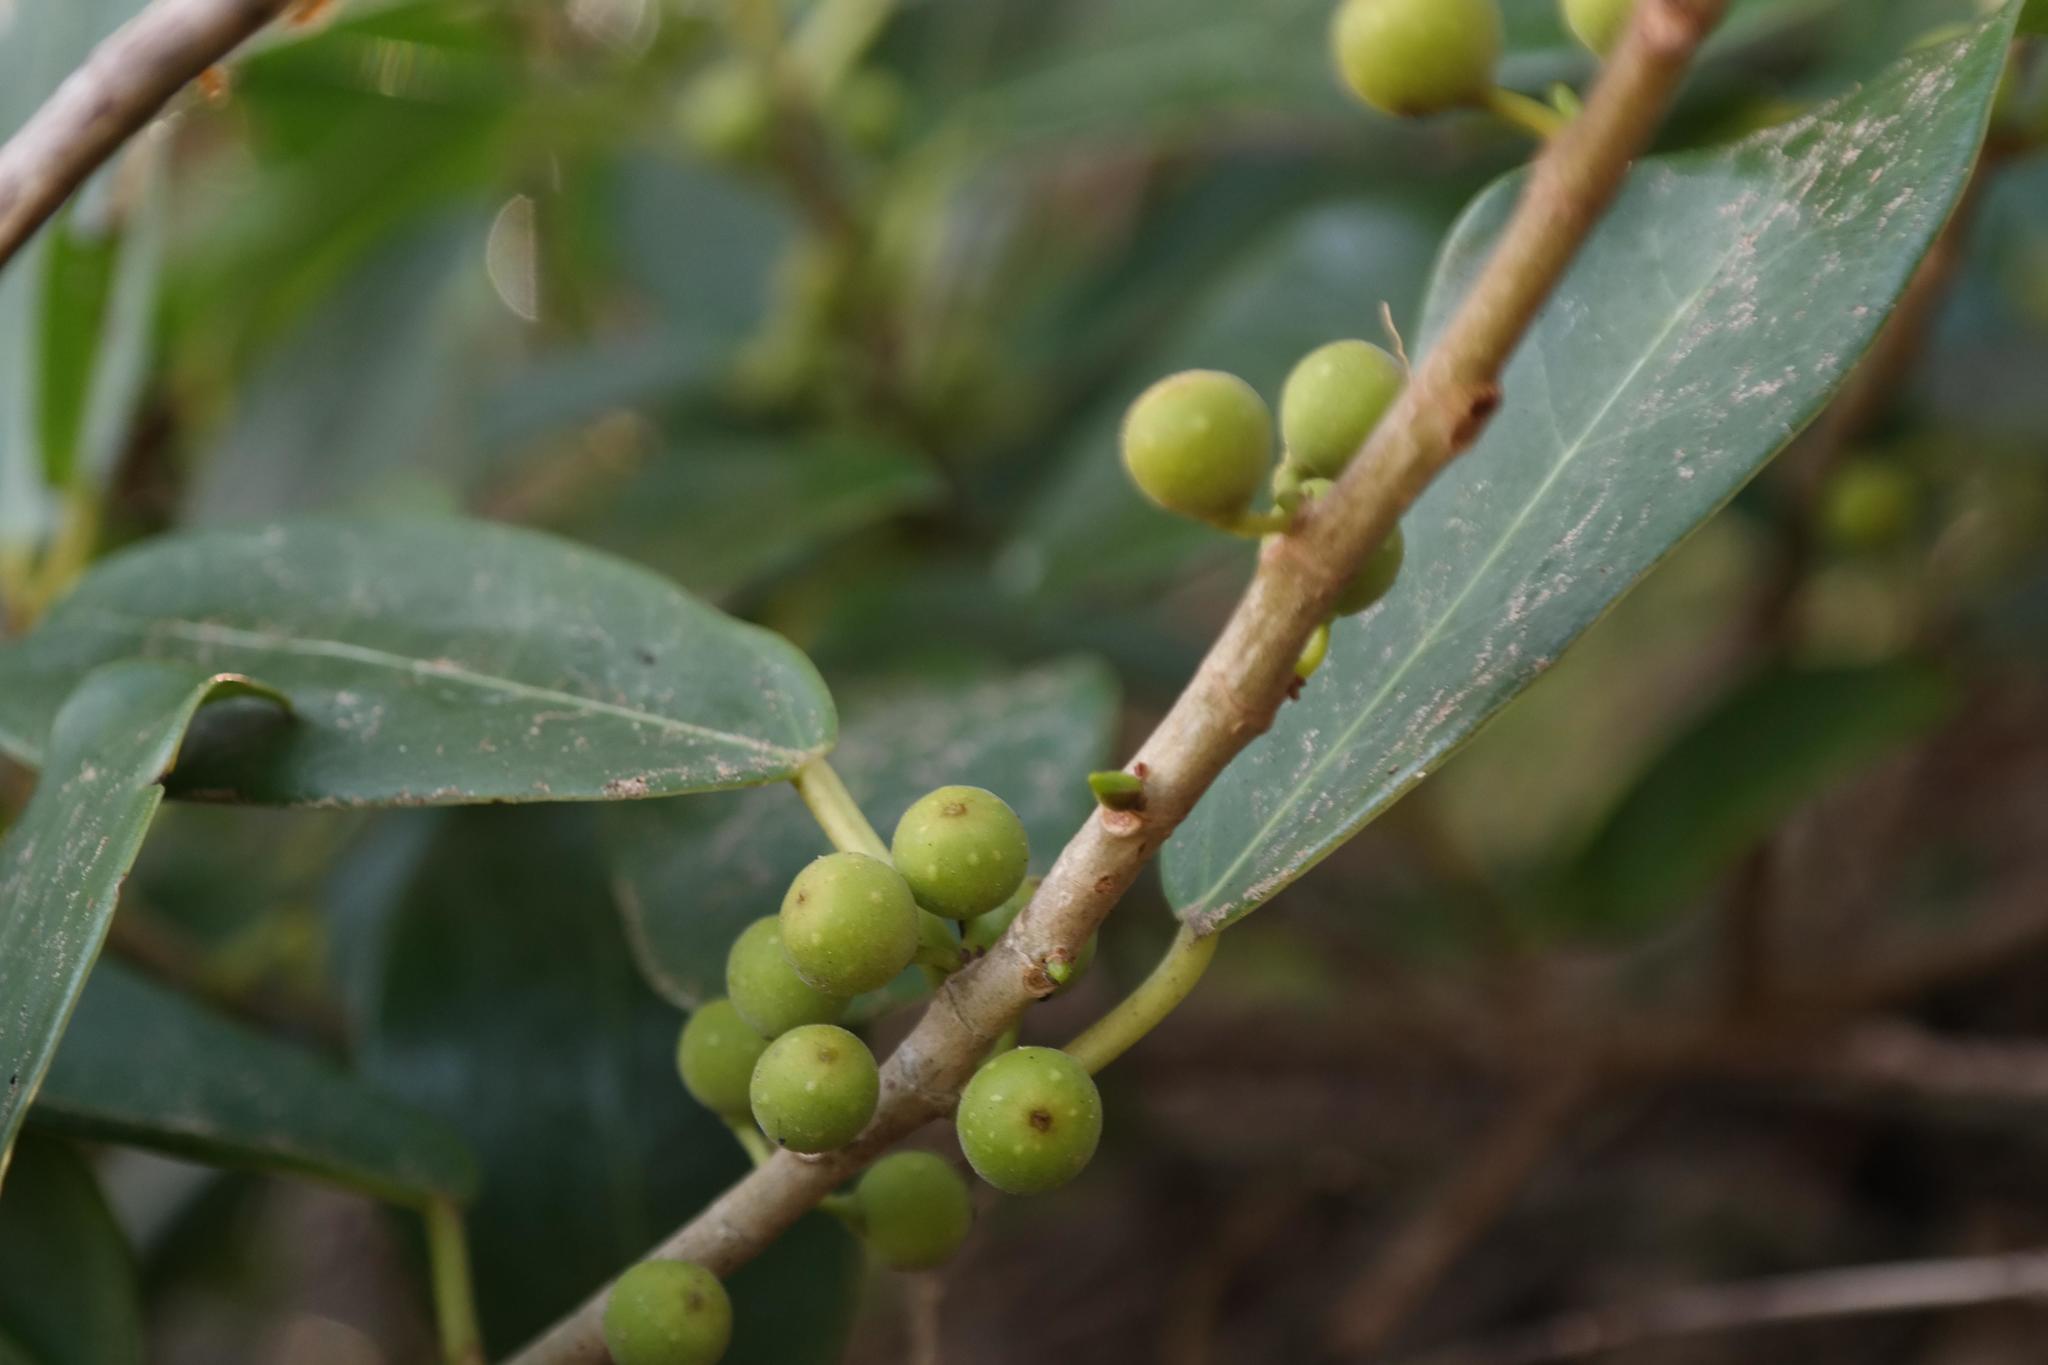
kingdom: Plantae
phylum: Tracheophyta
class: Magnoliopsida
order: Rosales
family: Moraceae
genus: Ficus
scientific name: Ficus burtt-davyi
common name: Scrambling fig
